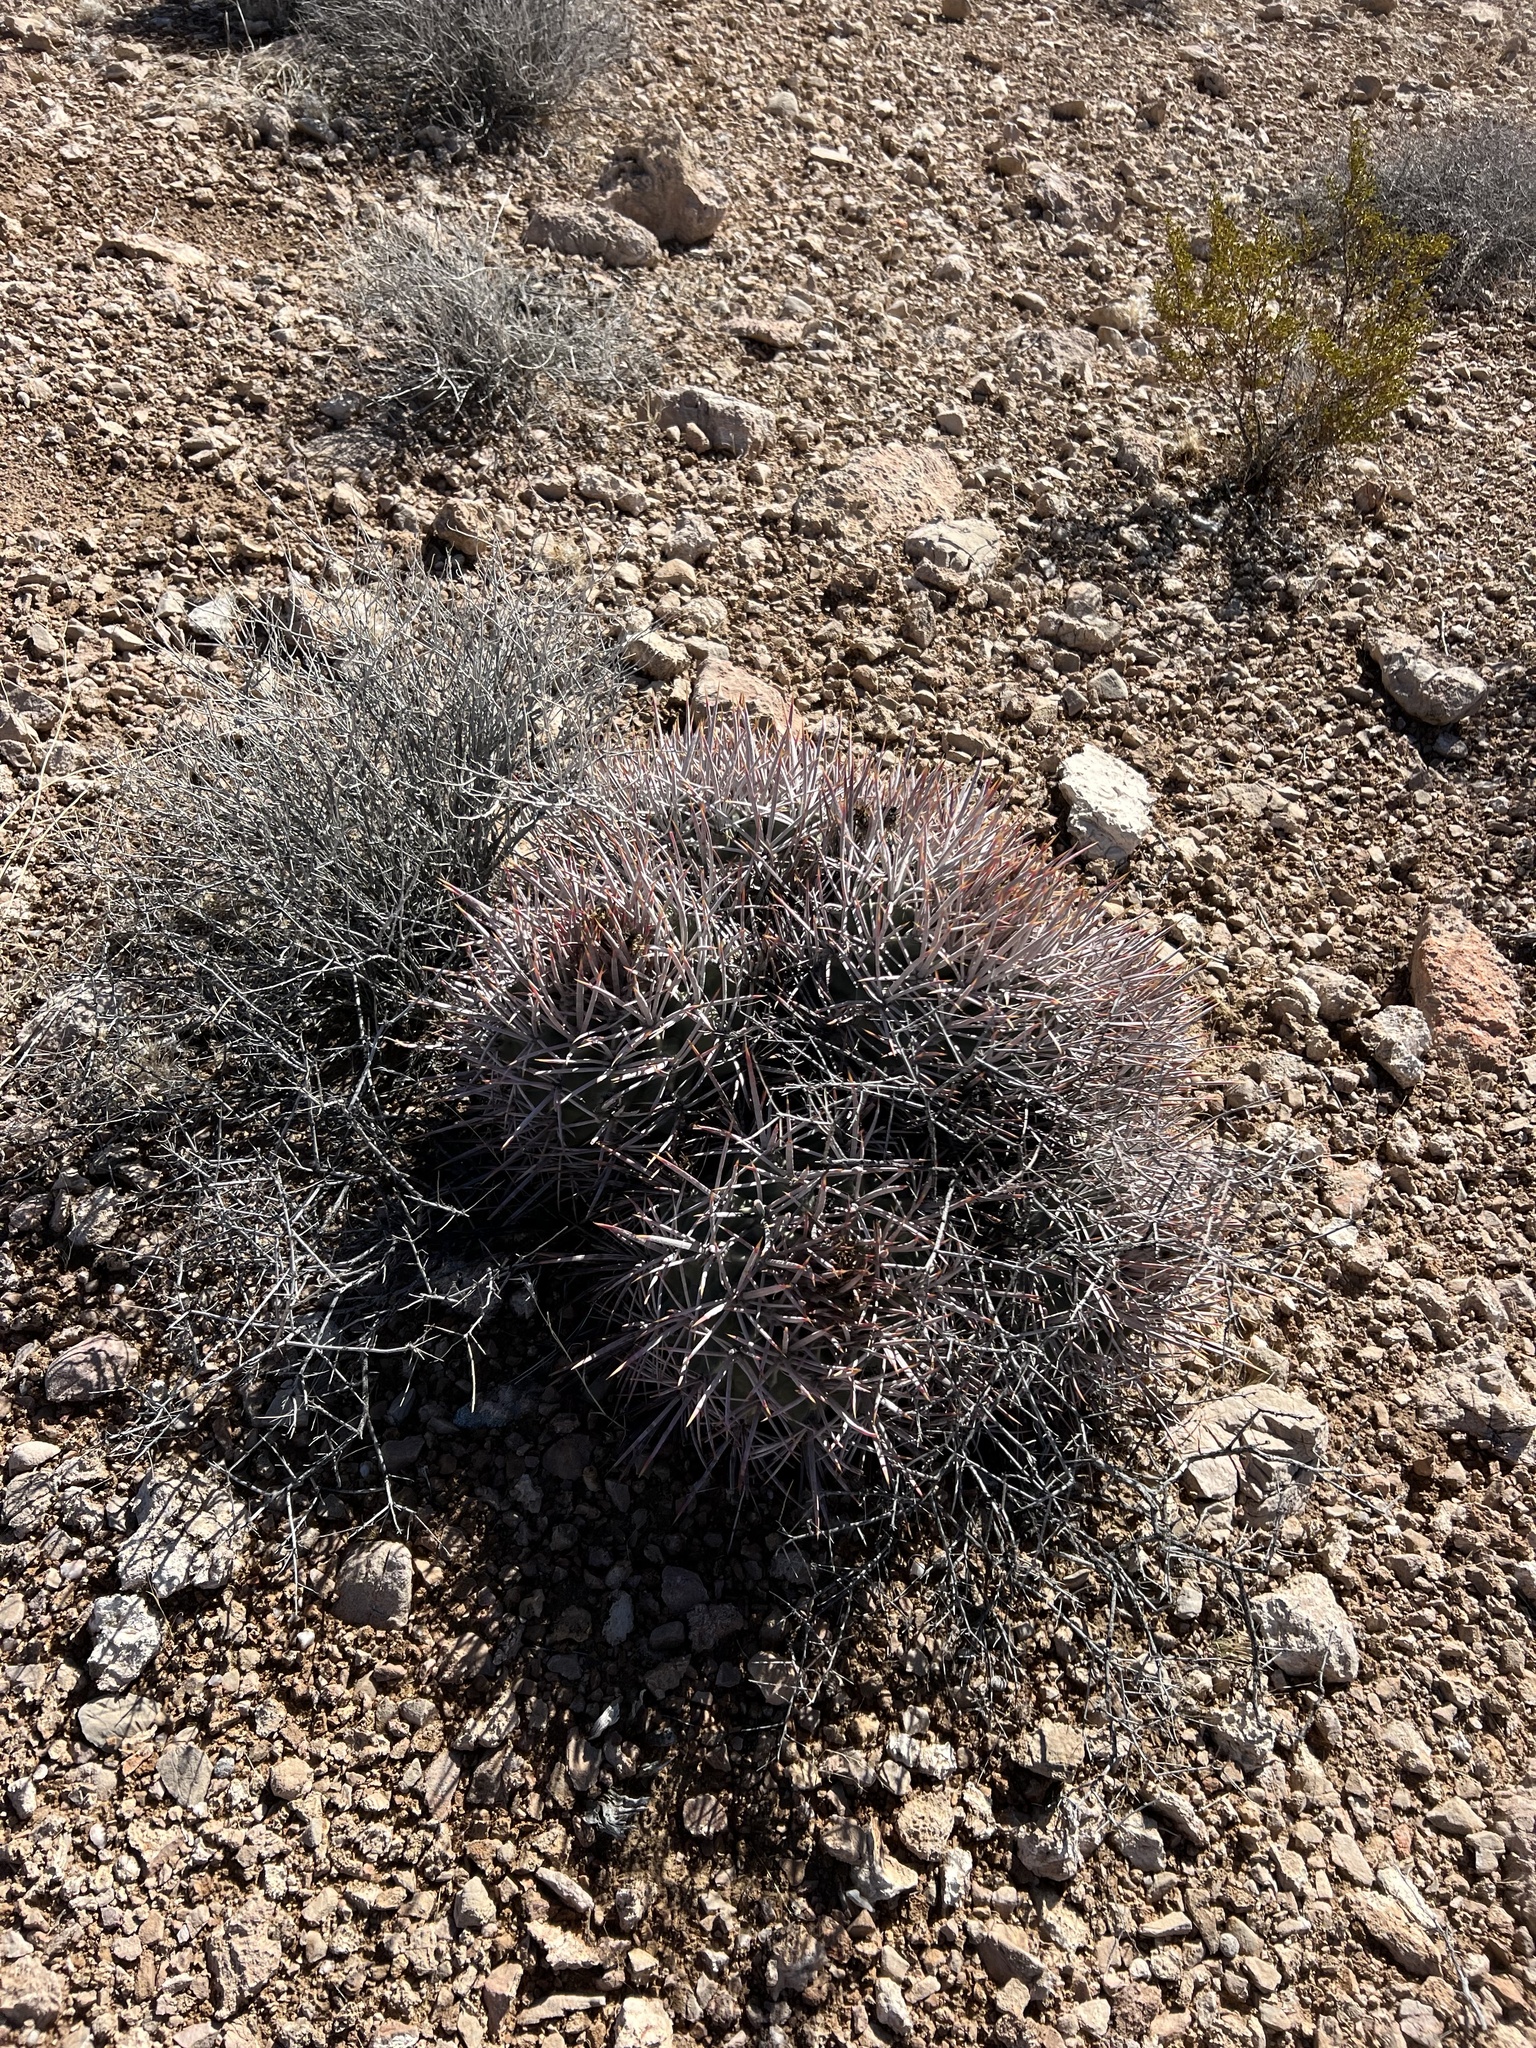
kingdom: Plantae
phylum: Tracheophyta
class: Magnoliopsida
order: Caryophyllales
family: Cactaceae
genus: Echinocactus
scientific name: Echinocactus polycephalus
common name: Cottontop cactus
